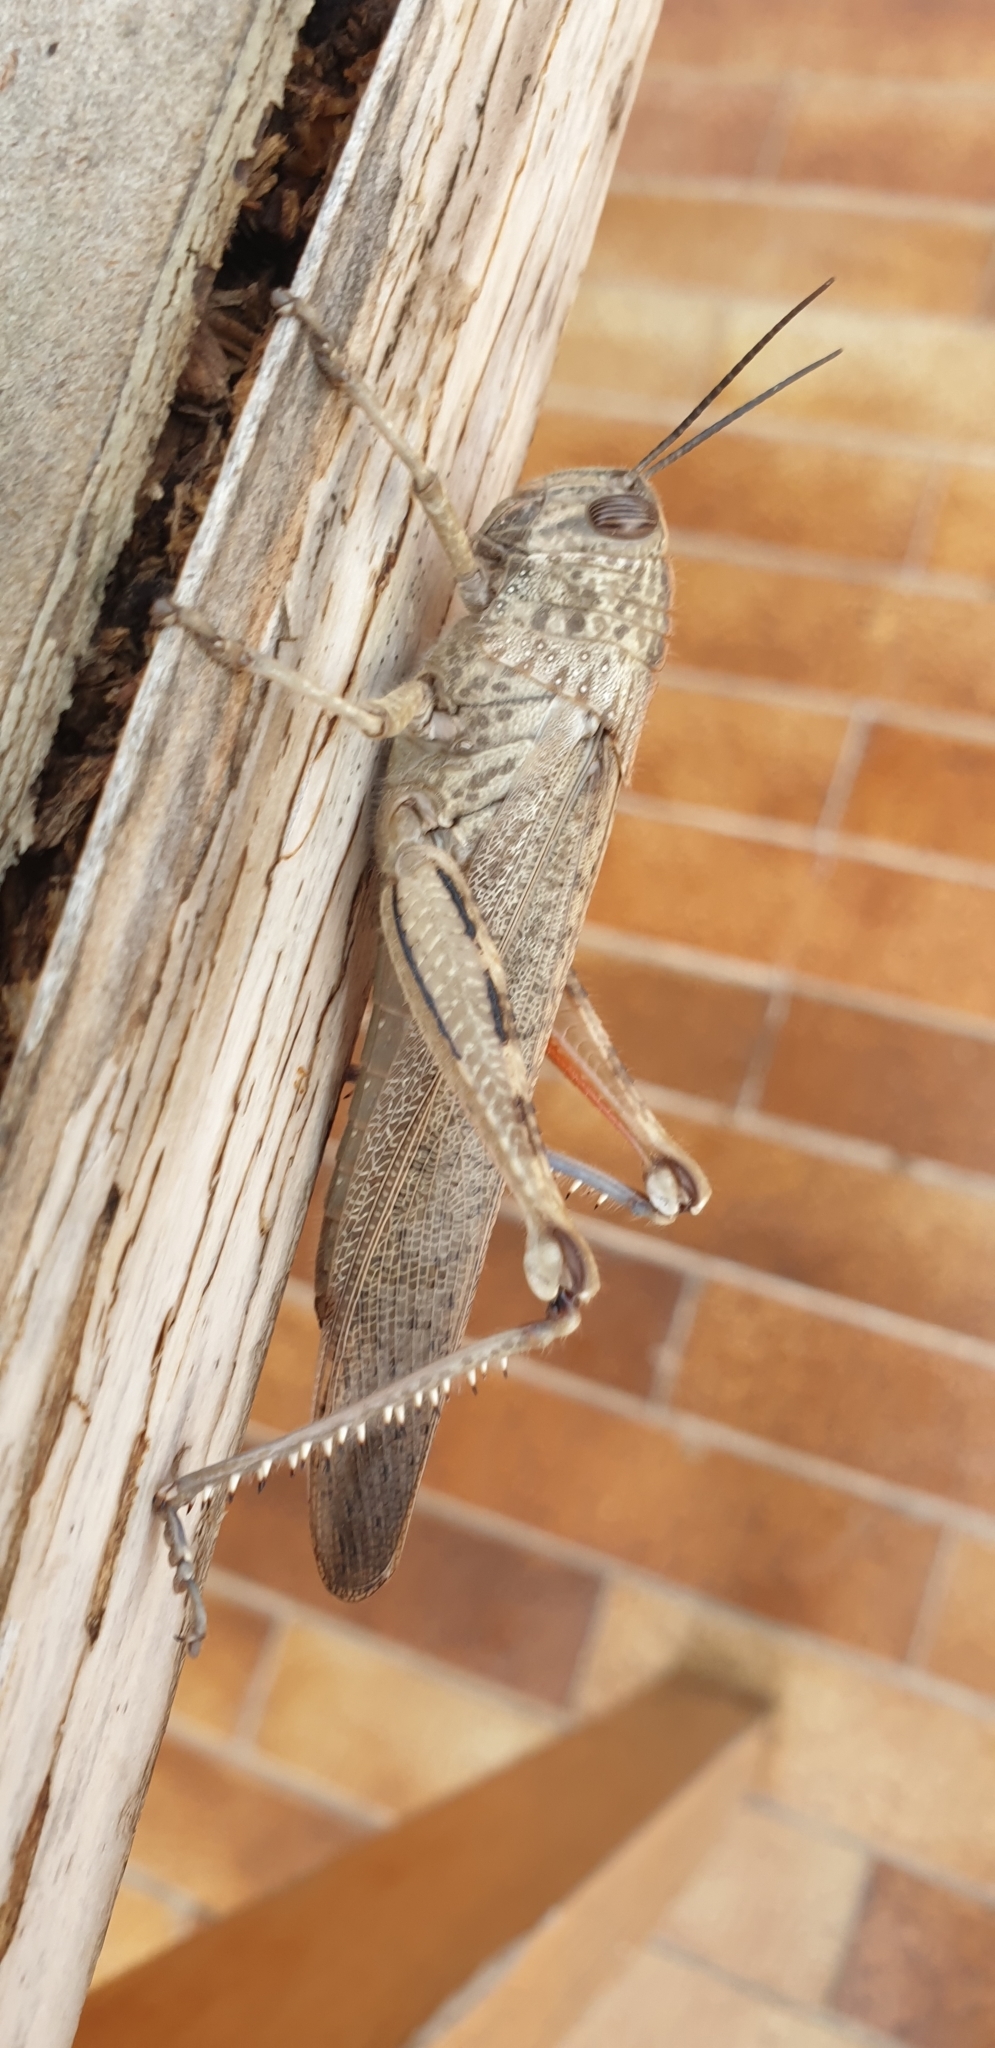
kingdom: Animalia
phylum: Arthropoda
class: Insecta
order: Orthoptera
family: Acrididae
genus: Anacridium
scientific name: Anacridium aegyptium
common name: Egyptian grasshopper
